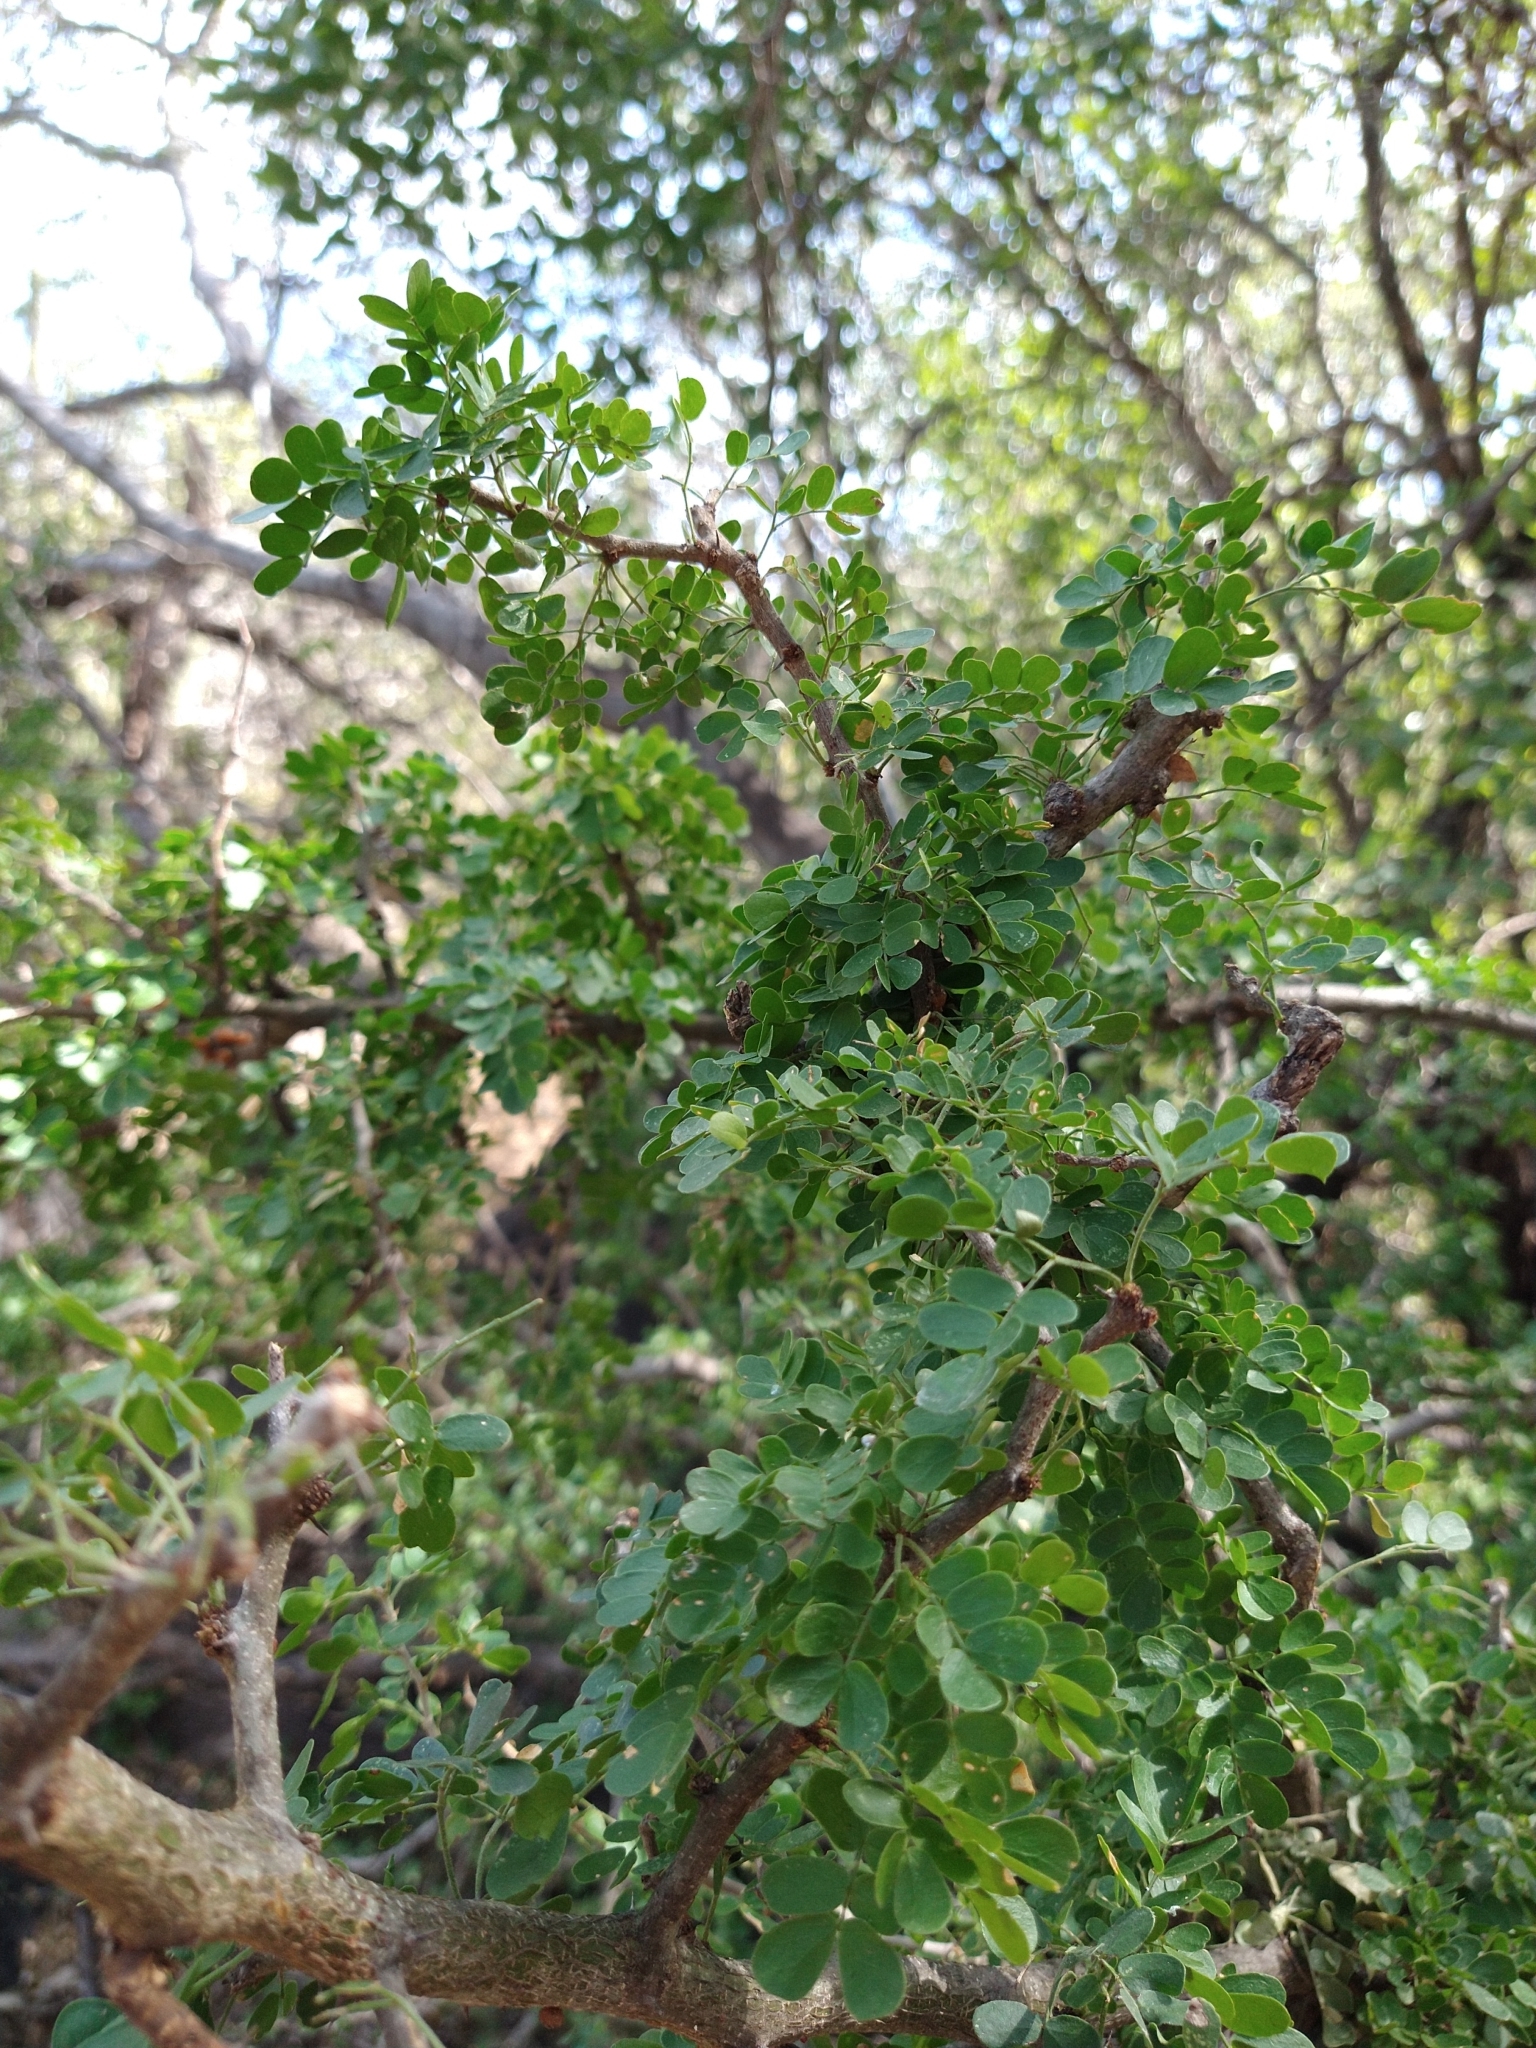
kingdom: Plantae
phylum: Tracheophyta
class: Magnoliopsida
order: Fabales
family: Fabaceae
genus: Olneya
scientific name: Olneya tesota
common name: Desert ironwood
